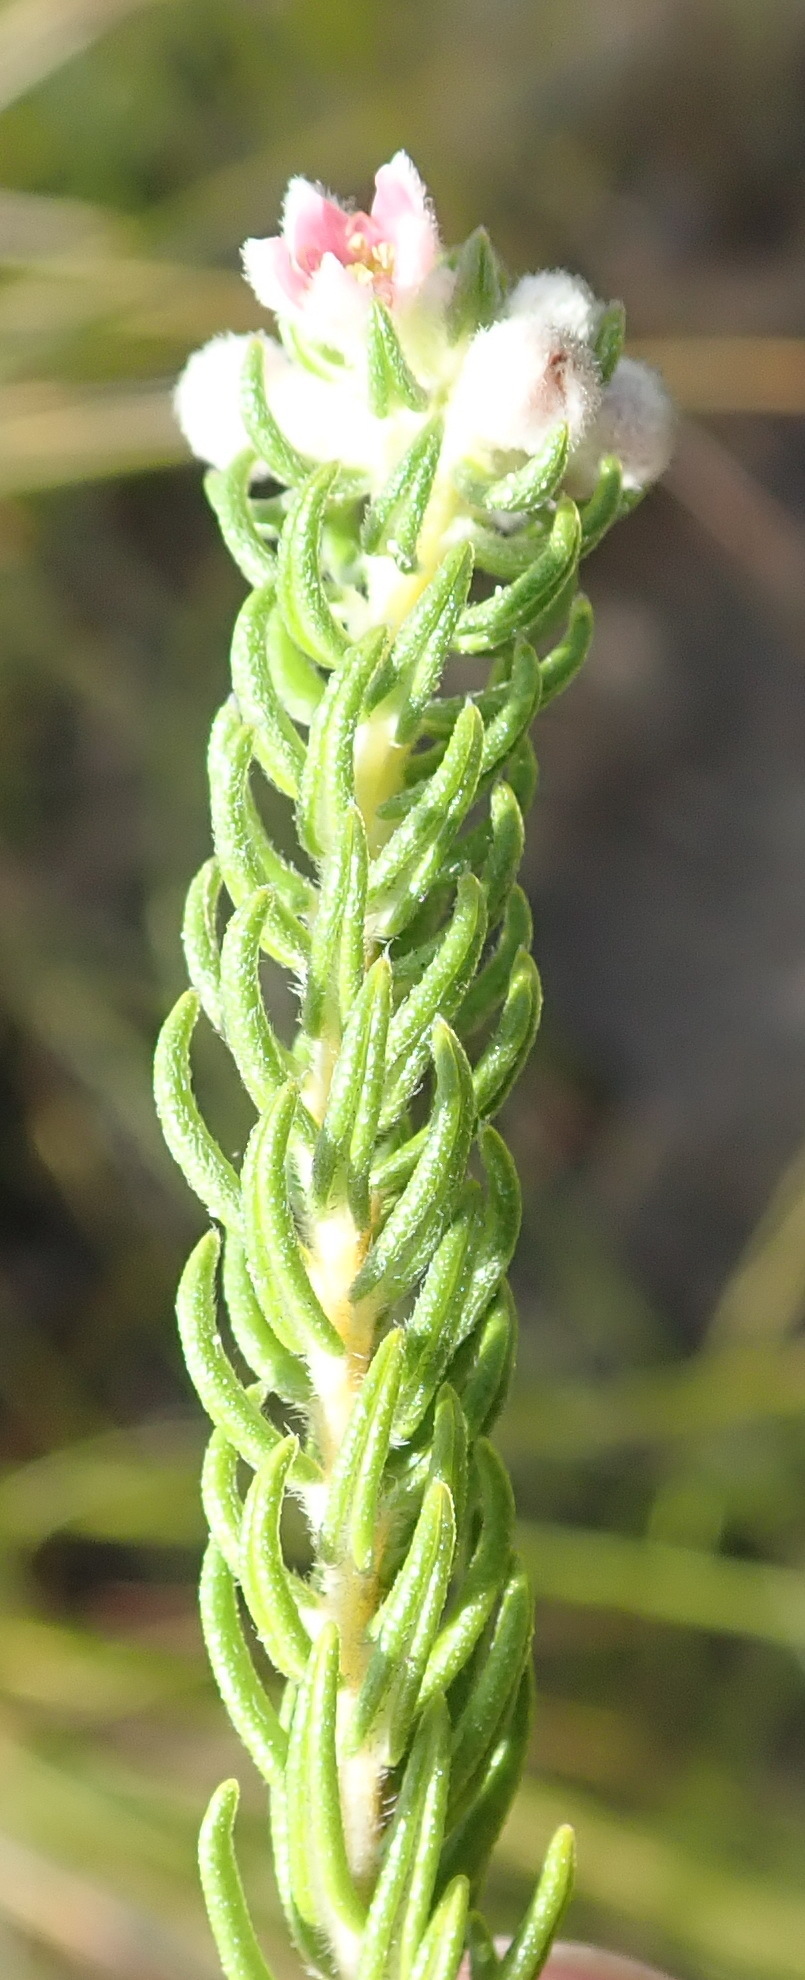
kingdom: Plantae
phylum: Tracheophyta
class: Magnoliopsida
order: Rosales
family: Rhamnaceae
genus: Phylica
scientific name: Phylica purpurea
